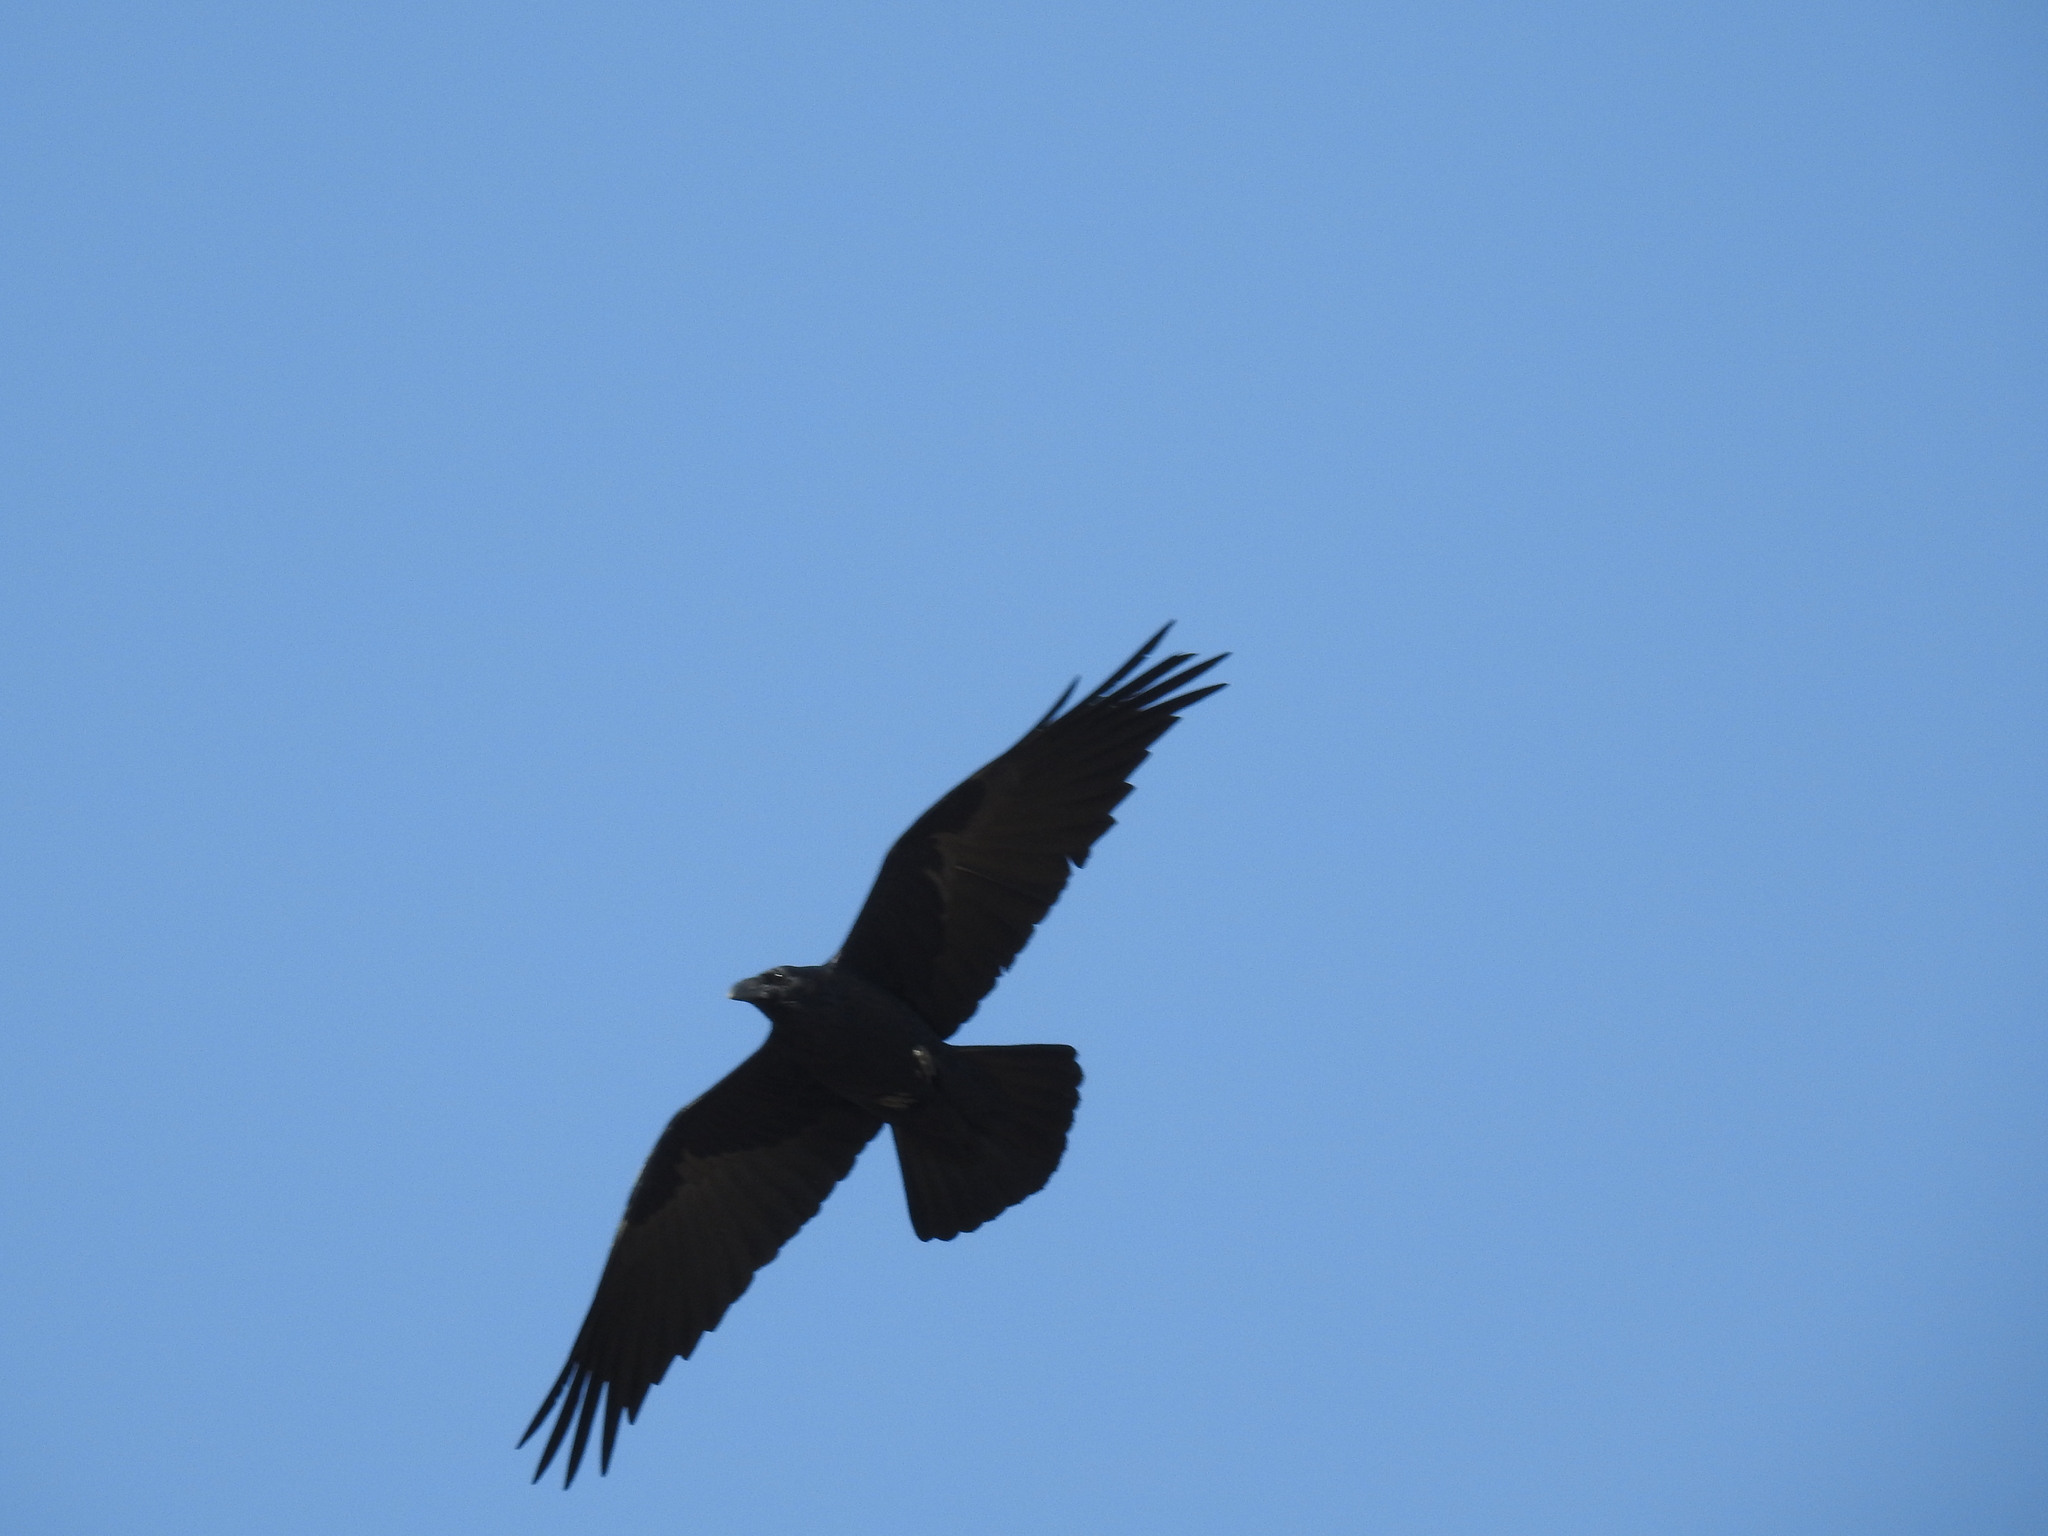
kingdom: Animalia
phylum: Chordata
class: Aves
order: Passeriformes
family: Corvidae
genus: Corvus
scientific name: Corvus corax
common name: Common raven
